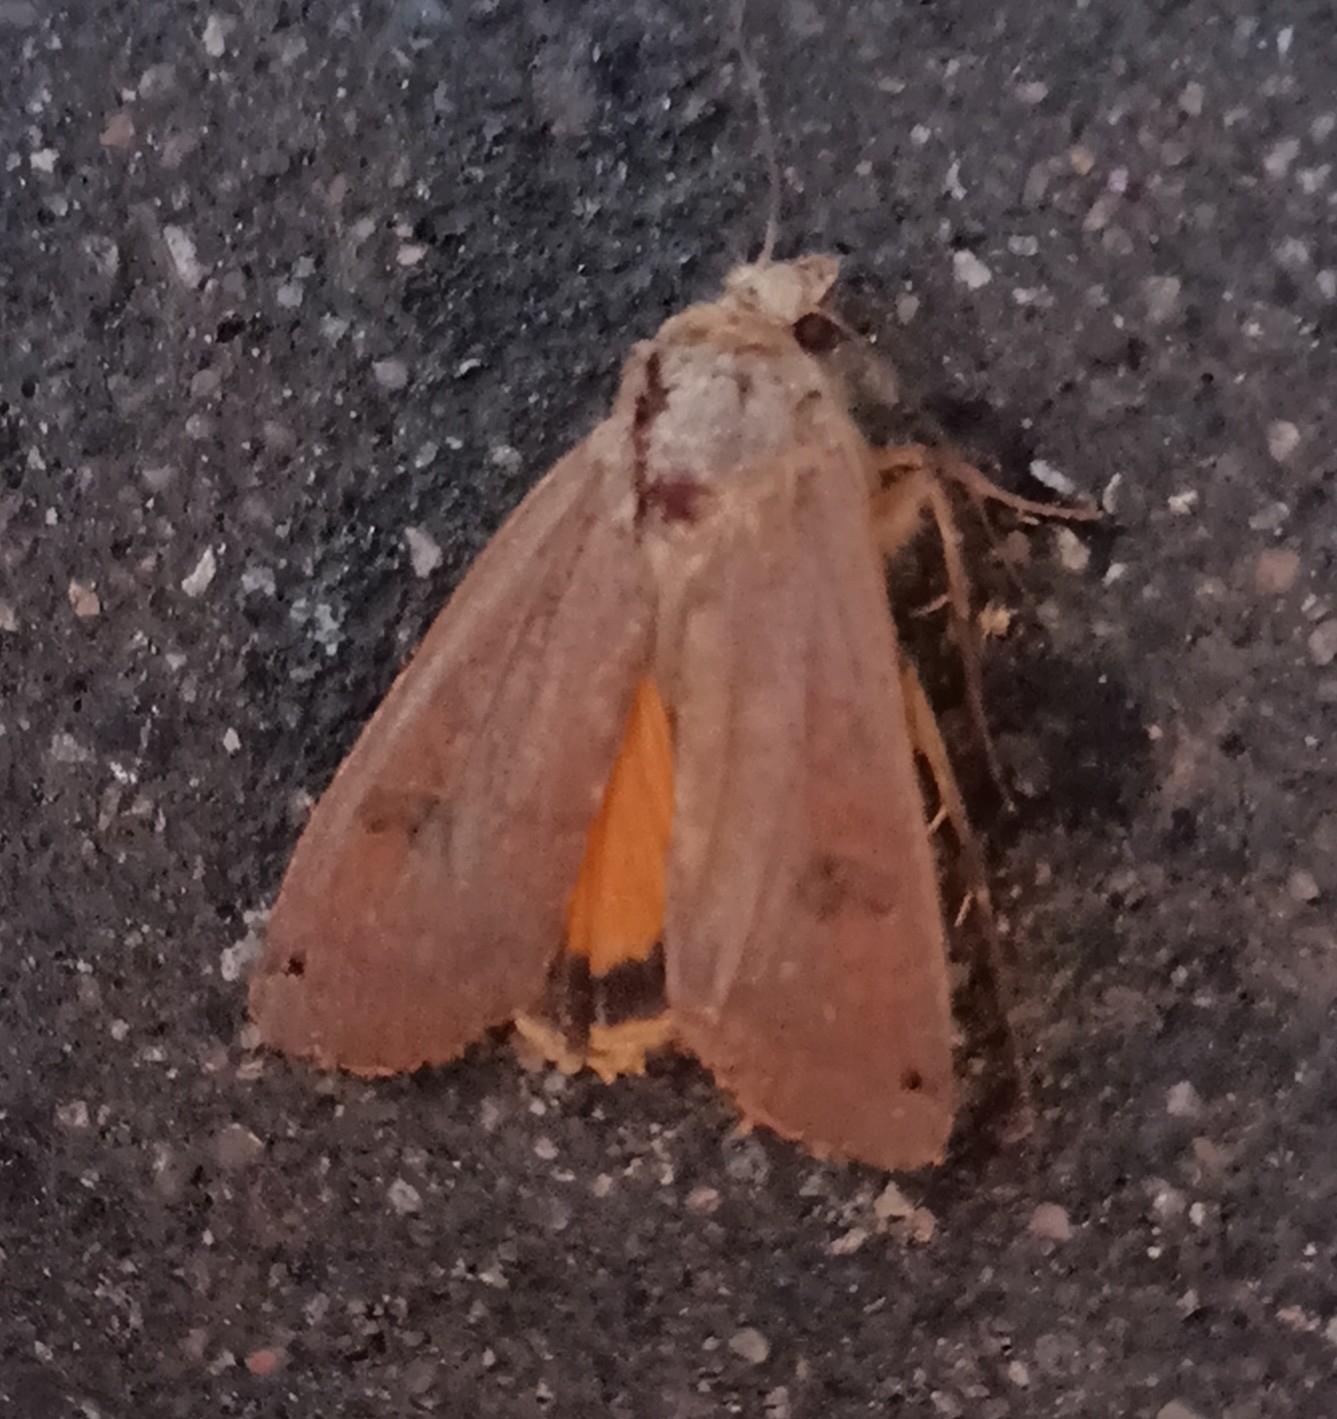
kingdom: Animalia
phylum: Arthropoda
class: Insecta
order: Lepidoptera
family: Noctuidae
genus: Noctua
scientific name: Noctua pronuba
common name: Large yellow underwing
